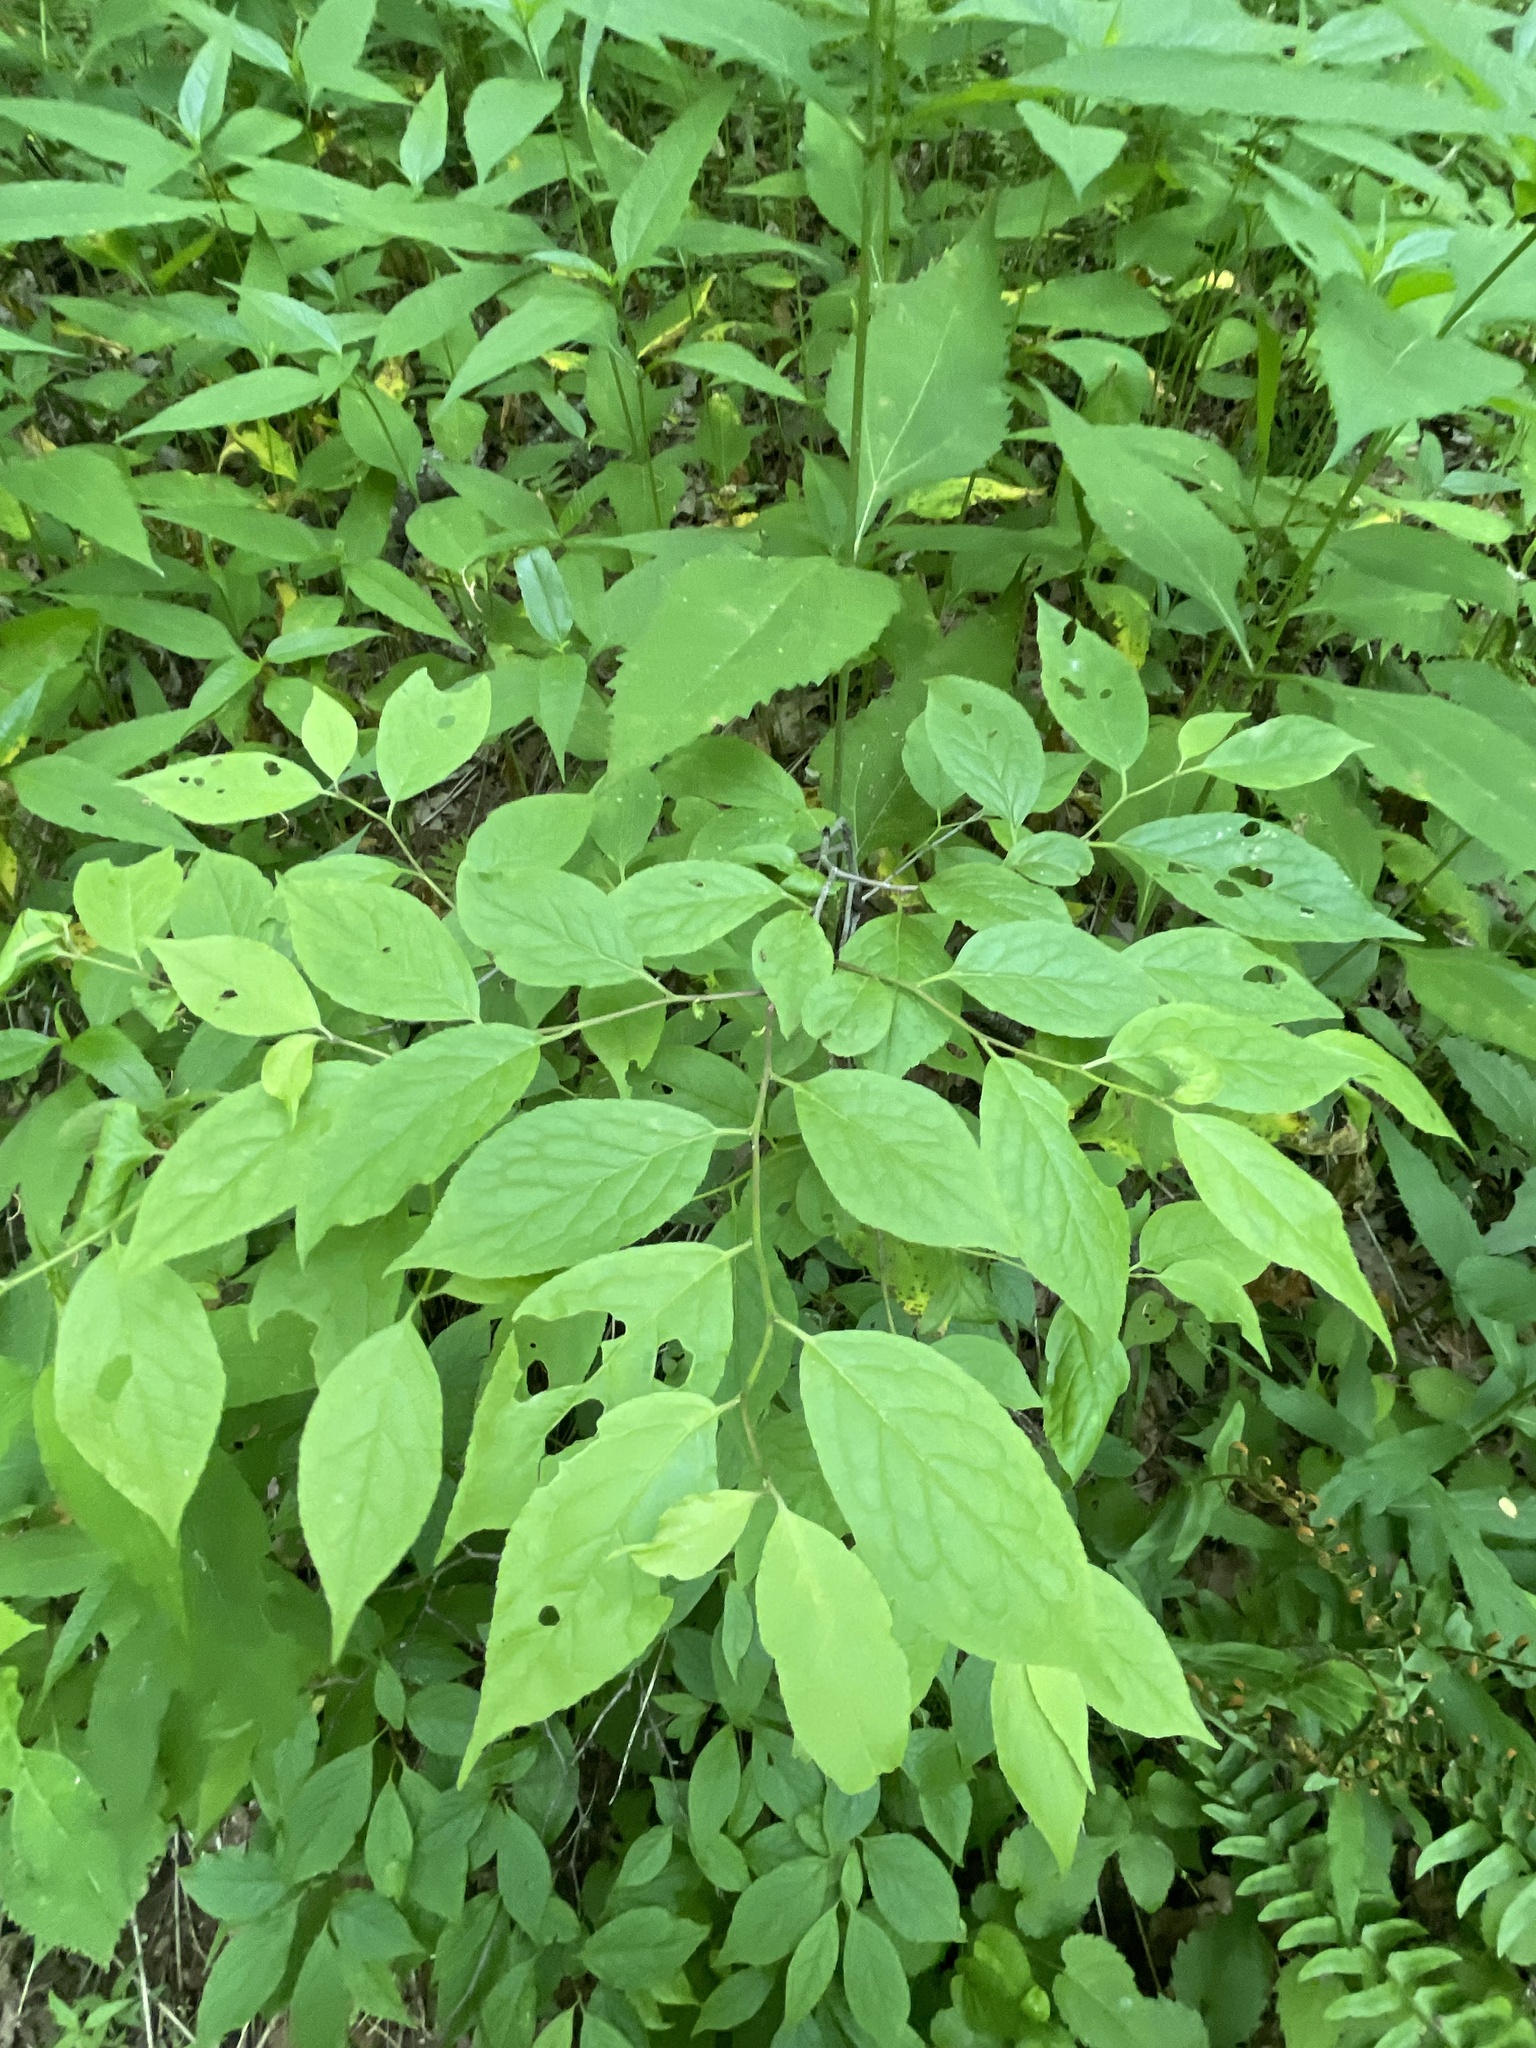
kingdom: Plantae
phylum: Tracheophyta
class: Magnoliopsida
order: Santalales
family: Cervantesiaceae
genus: Pyrularia
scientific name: Pyrularia pubera
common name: Oilnut
